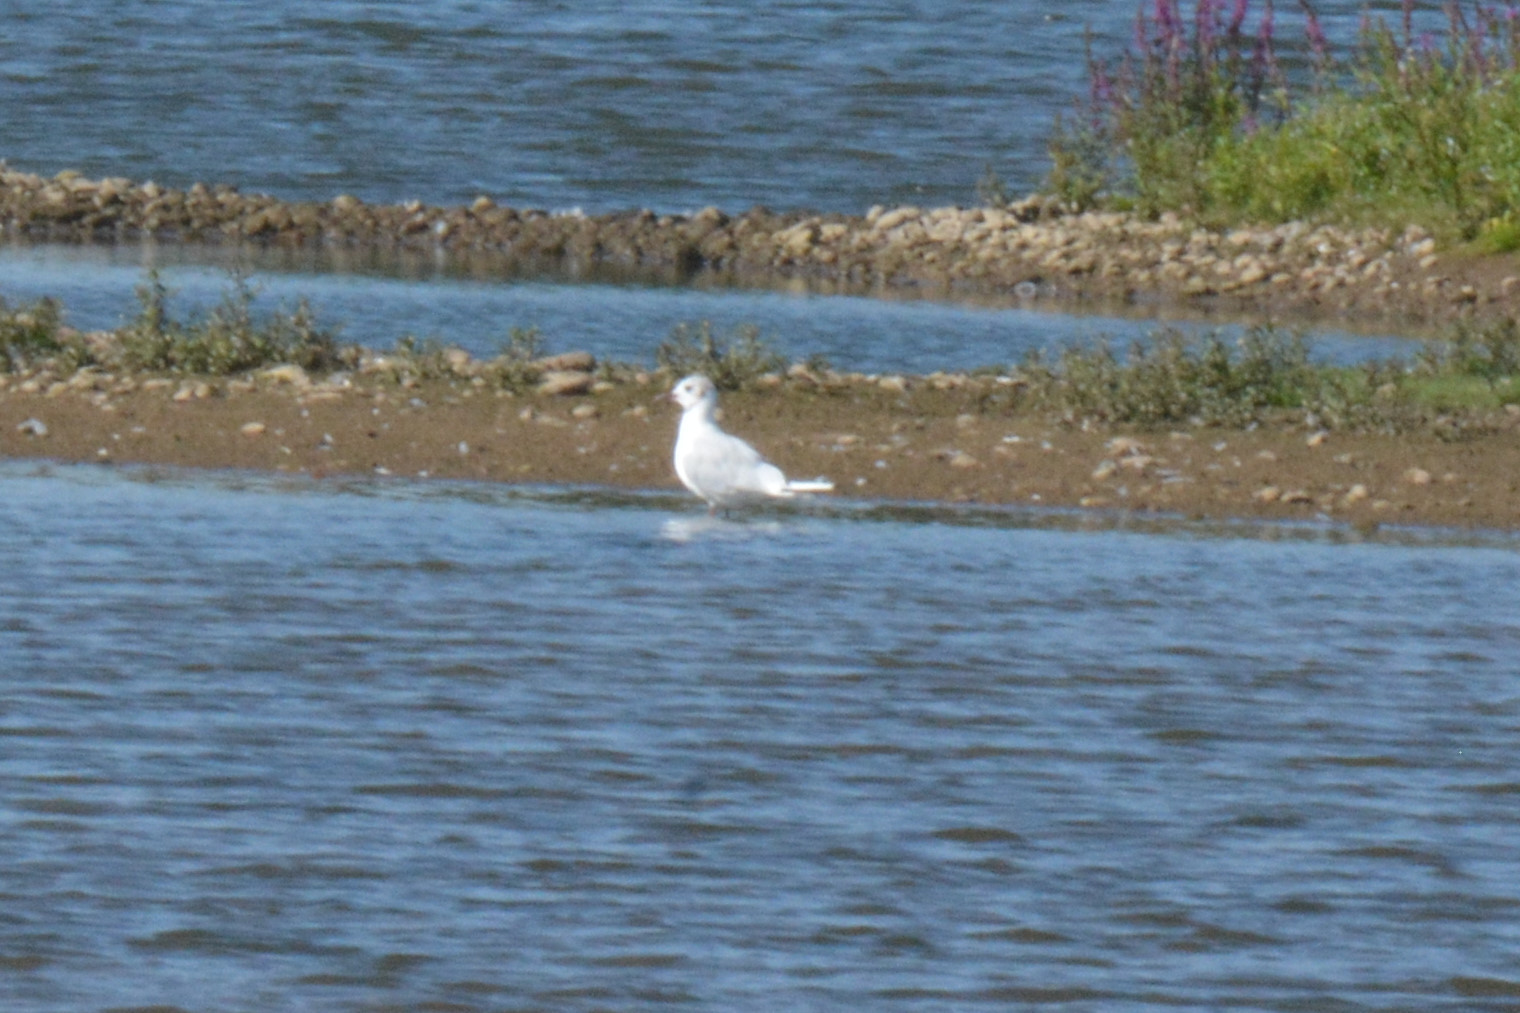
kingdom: Animalia
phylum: Chordata
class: Aves
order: Charadriiformes
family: Laridae
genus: Chroicocephalus
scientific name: Chroicocephalus ridibundus
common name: Black-headed gull
